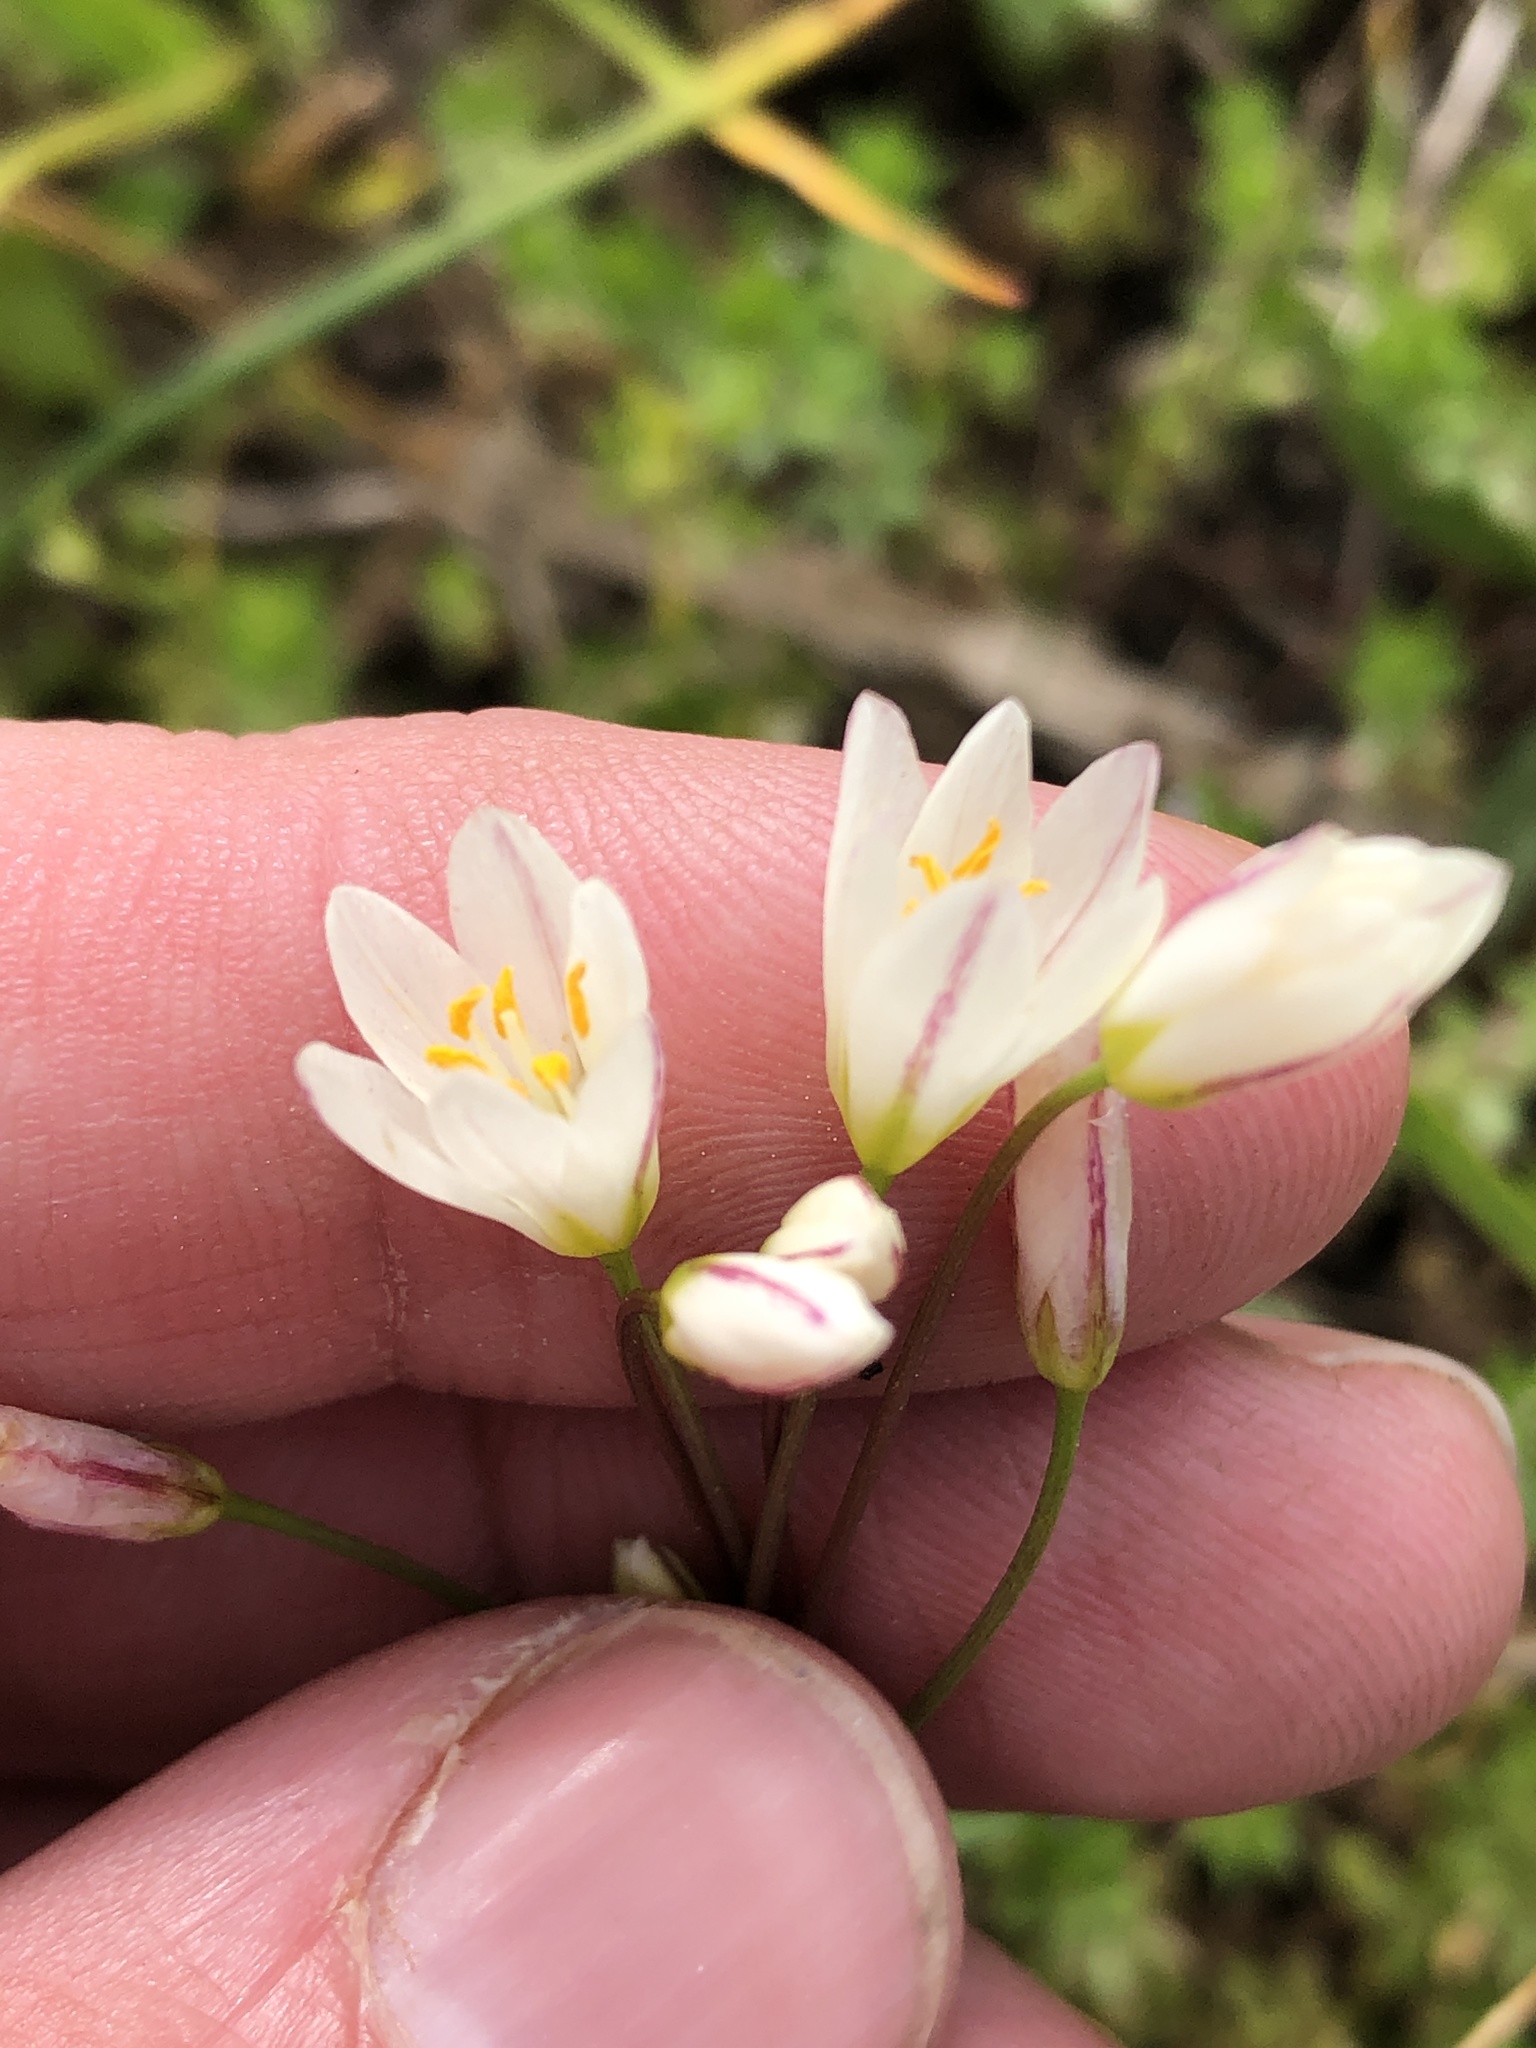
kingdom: Plantae
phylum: Tracheophyta
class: Liliopsida
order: Asparagales
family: Amaryllidaceae
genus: Nothoscordum
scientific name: Nothoscordum bivalve
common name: Crow-poison
